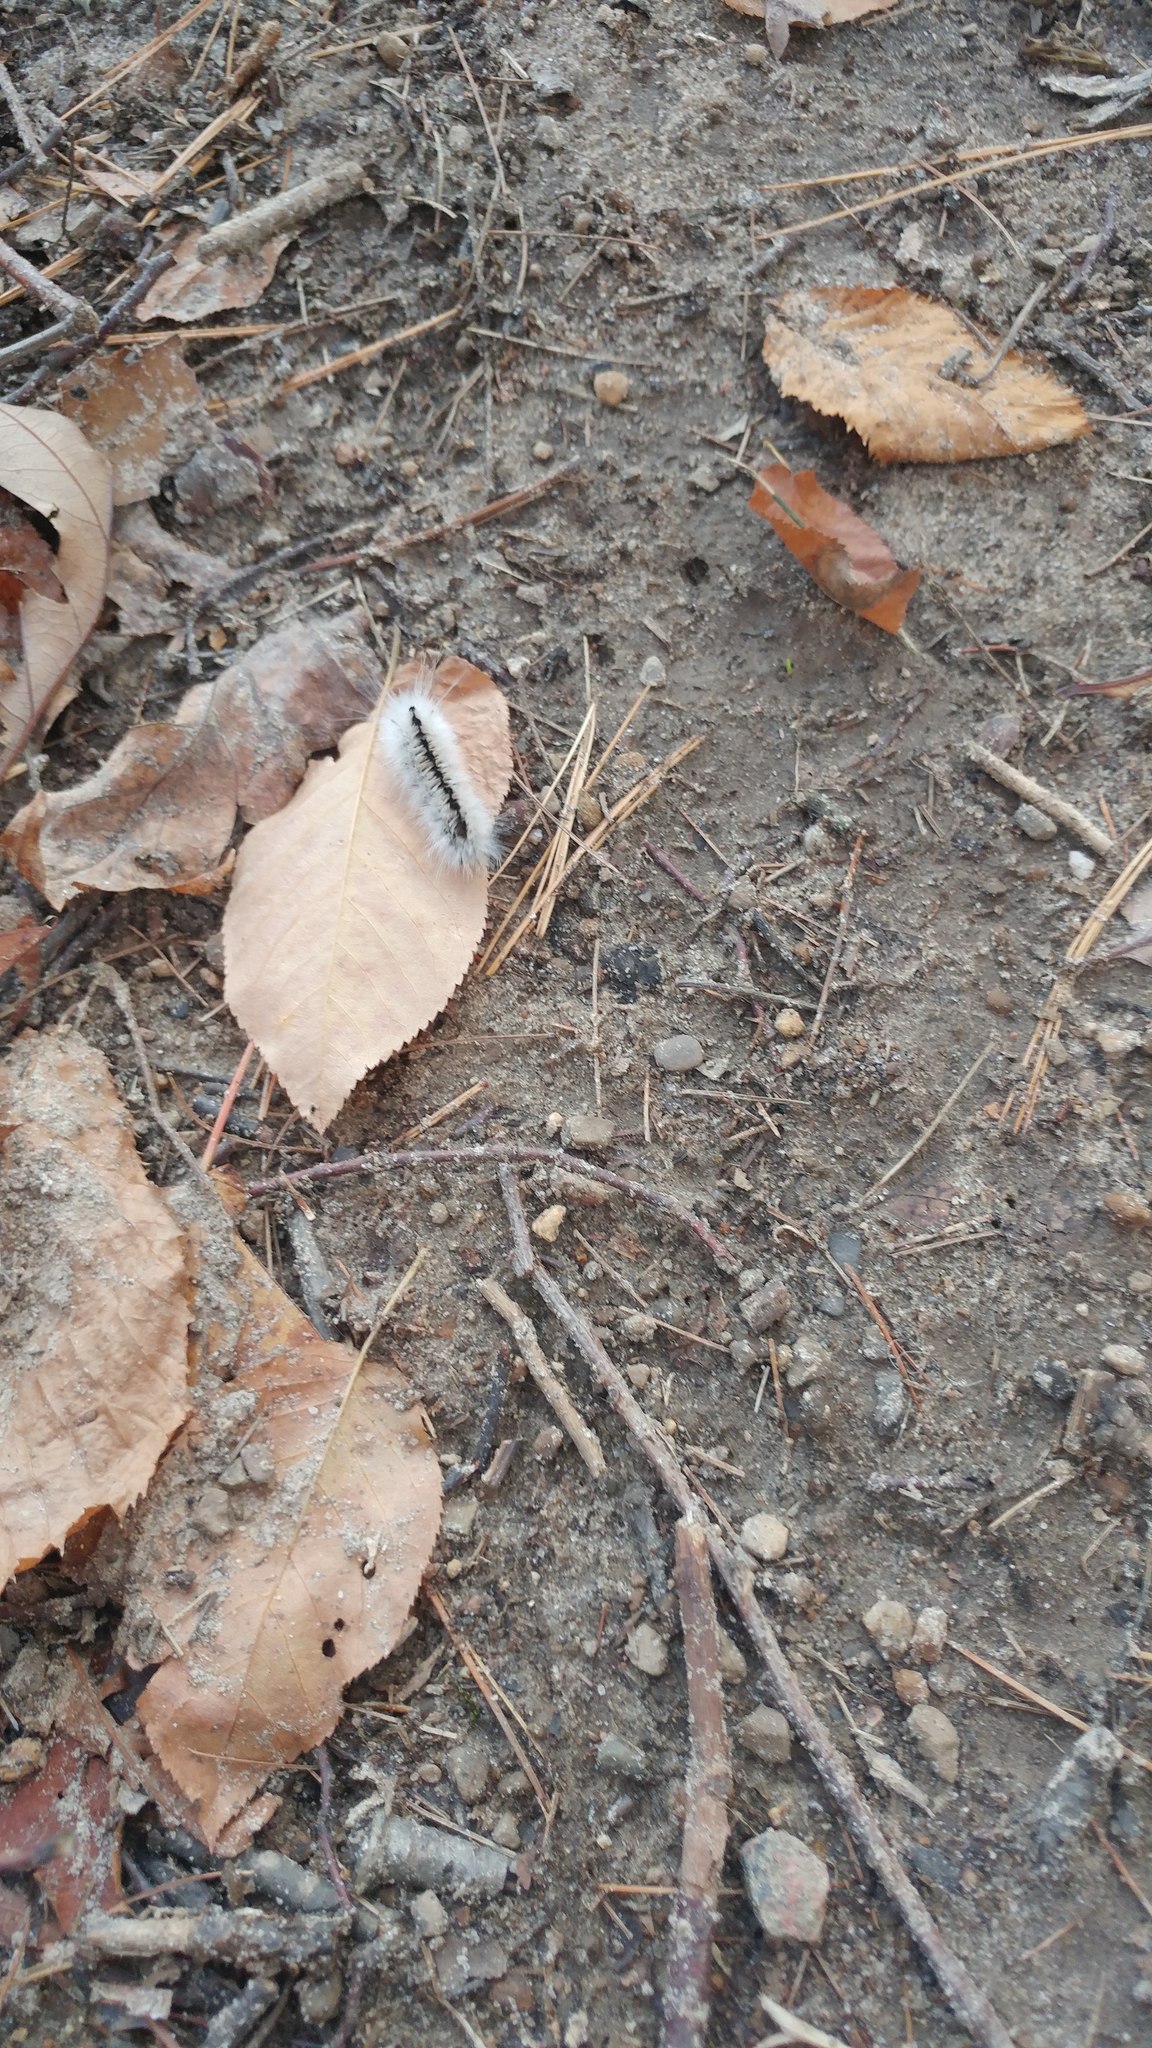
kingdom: Animalia
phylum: Arthropoda
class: Insecta
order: Lepidoptera
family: Erebidae
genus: Lophocampa
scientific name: Lophocampa caryae
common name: Hickory tussock moth
